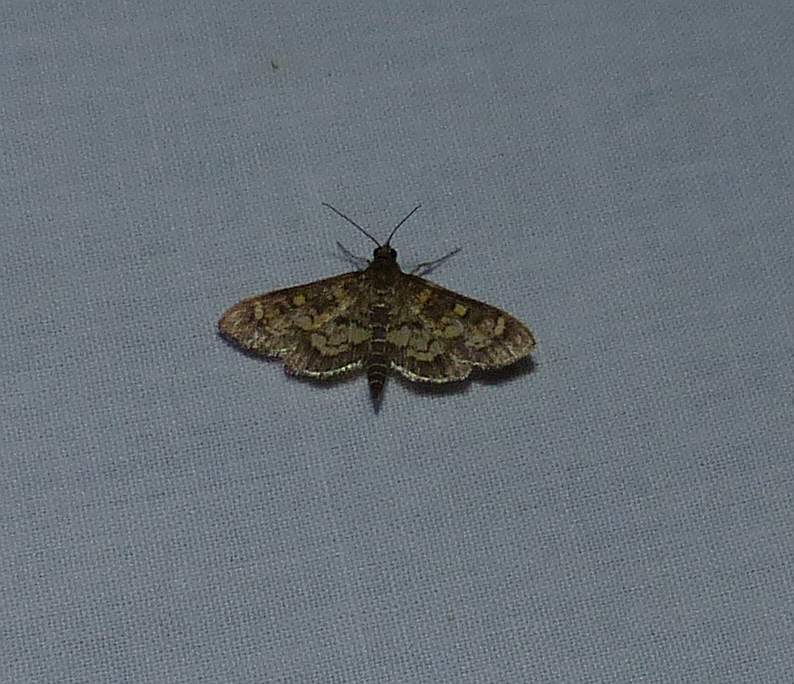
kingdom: Animalia
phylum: Arthropoda
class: Insecta
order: Lepidoptera
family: Crambidae
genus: Epipagis
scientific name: Epipagis adipaloides
